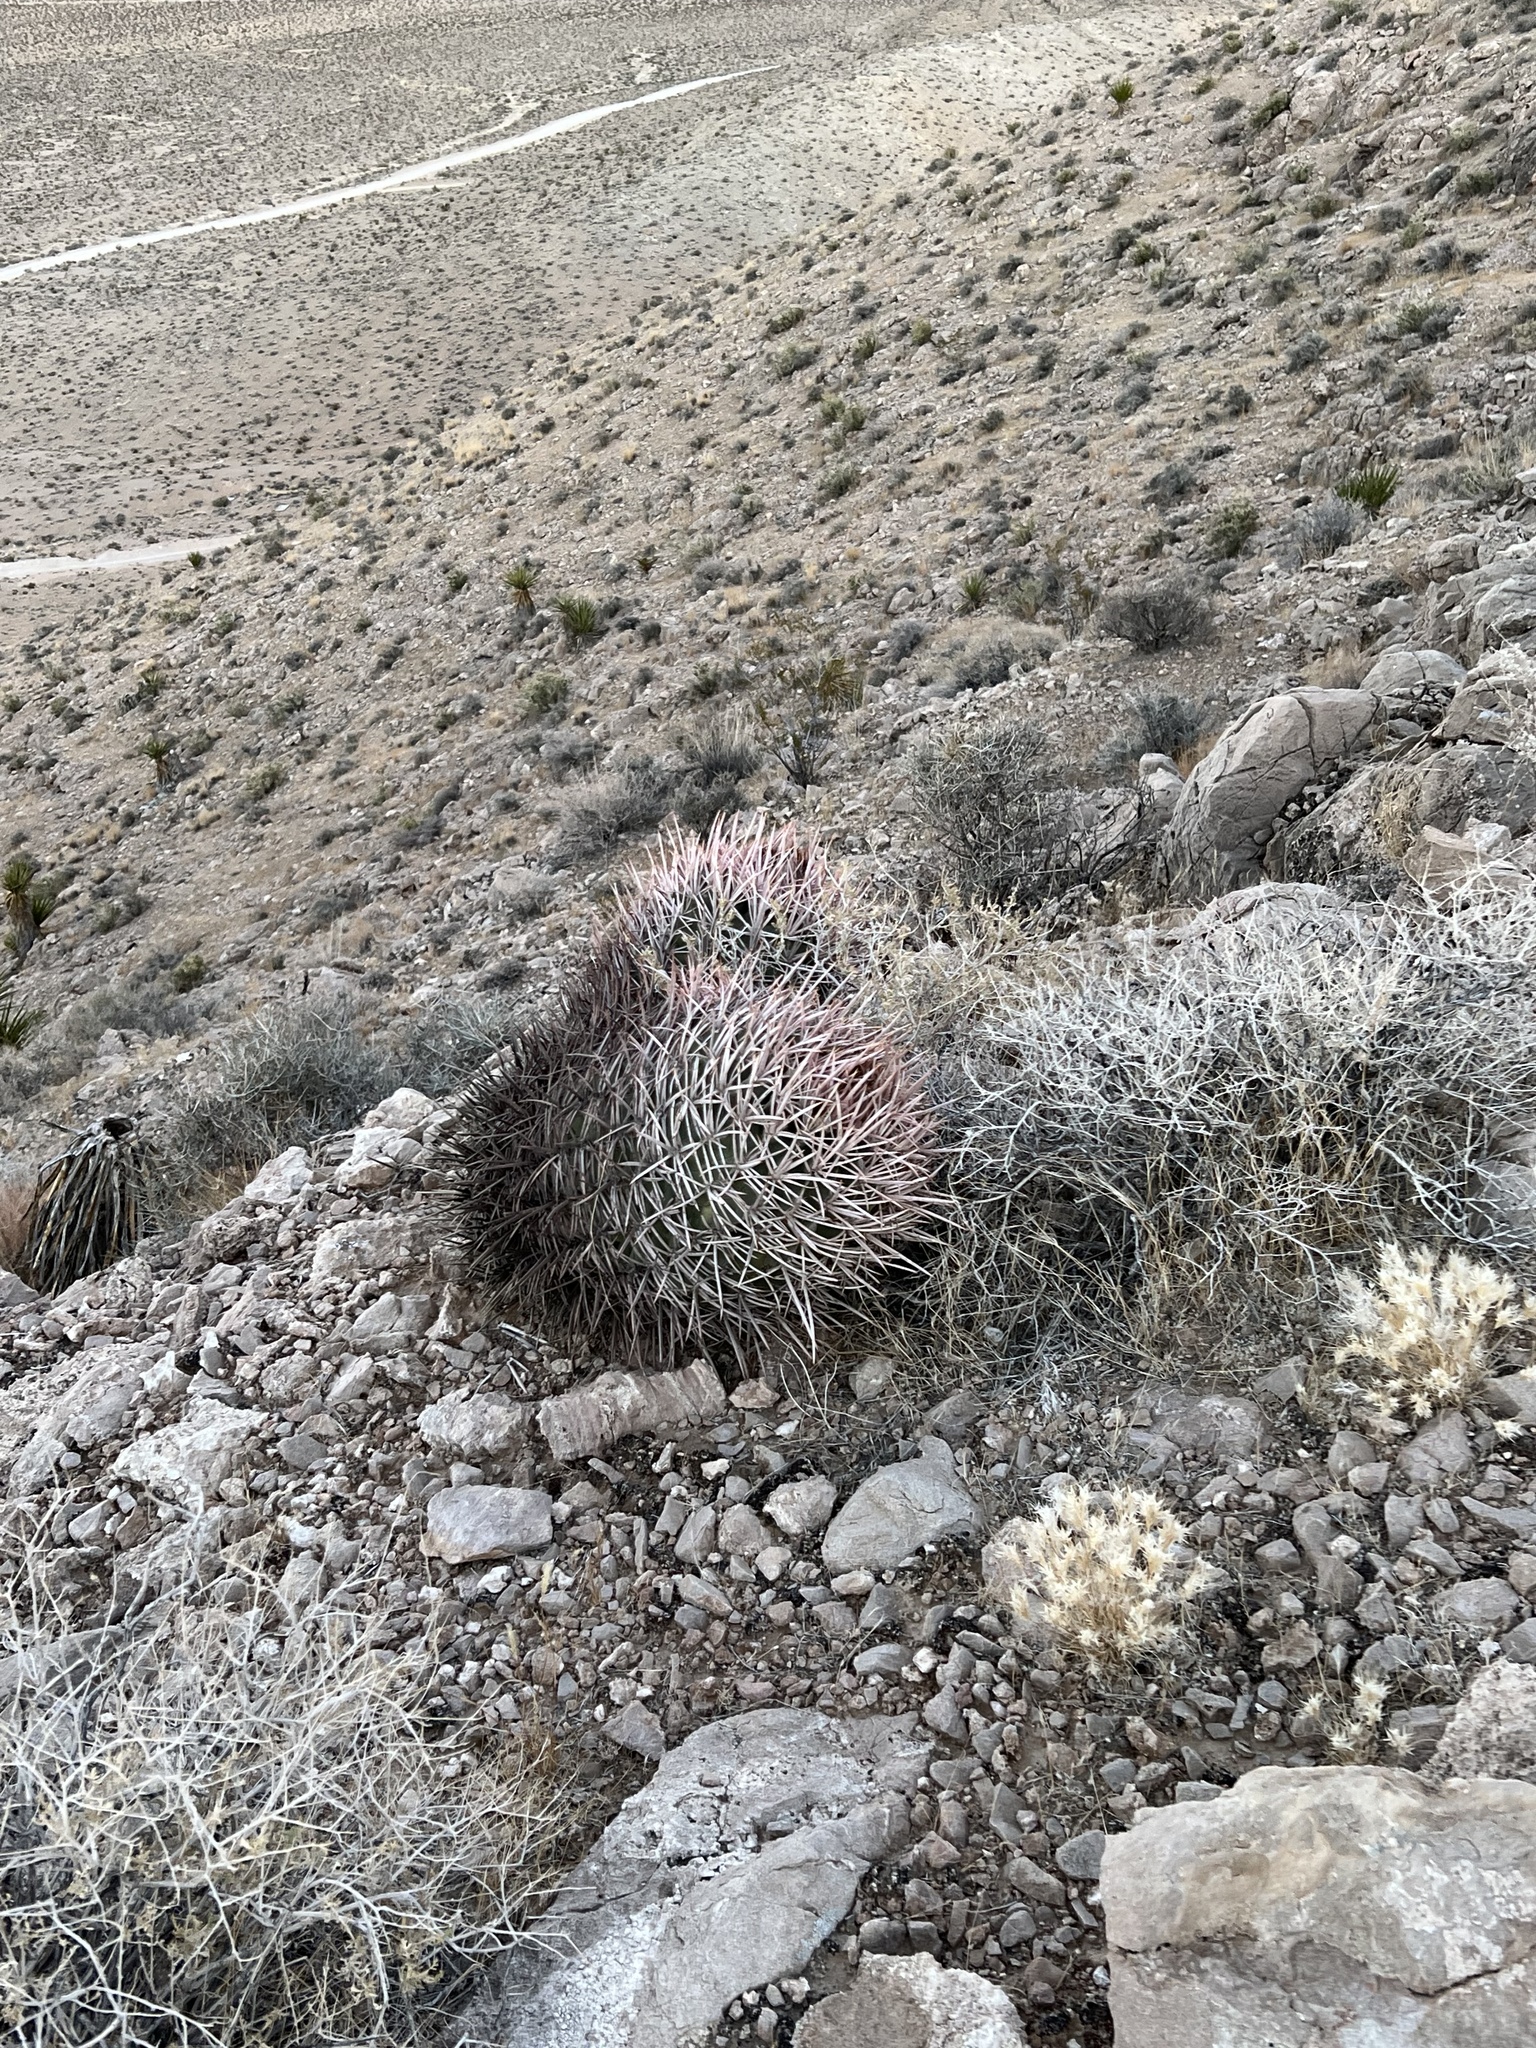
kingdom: Plantae
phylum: Tracheophyta
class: Magnoliopsida
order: Caryophyllales
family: Cactaceae
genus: Echinocactus
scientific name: Echinocactus polycephalus
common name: Cottontop cactus
